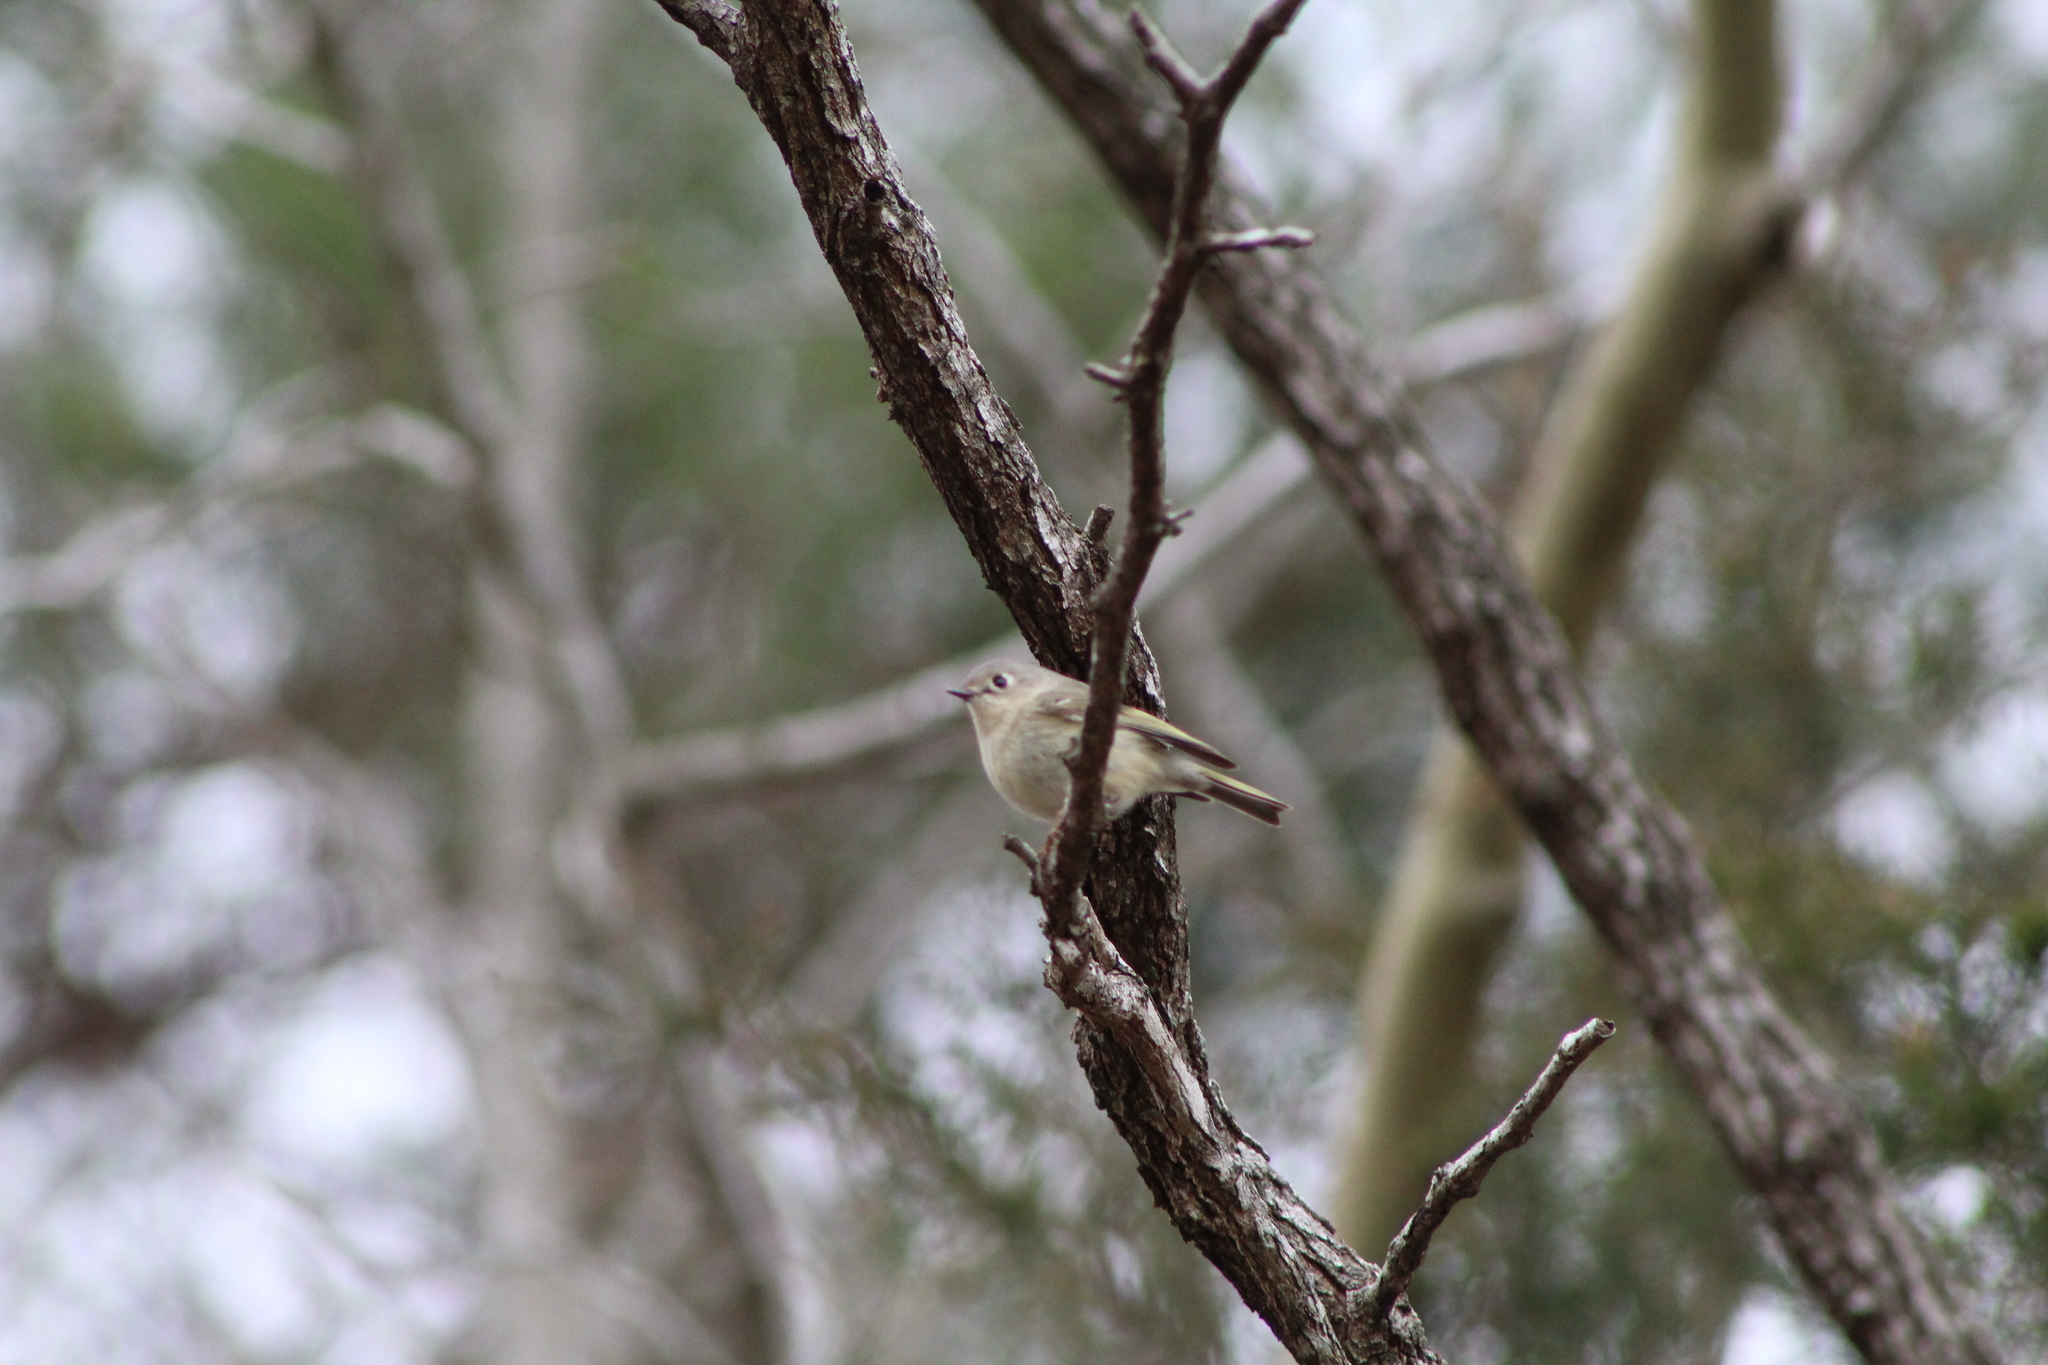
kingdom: Animalia
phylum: Chordata
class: Aves
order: Passeriformes
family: Regulidae
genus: Regulus
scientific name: Regulus calendula
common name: Ruby-crowned kinglet
